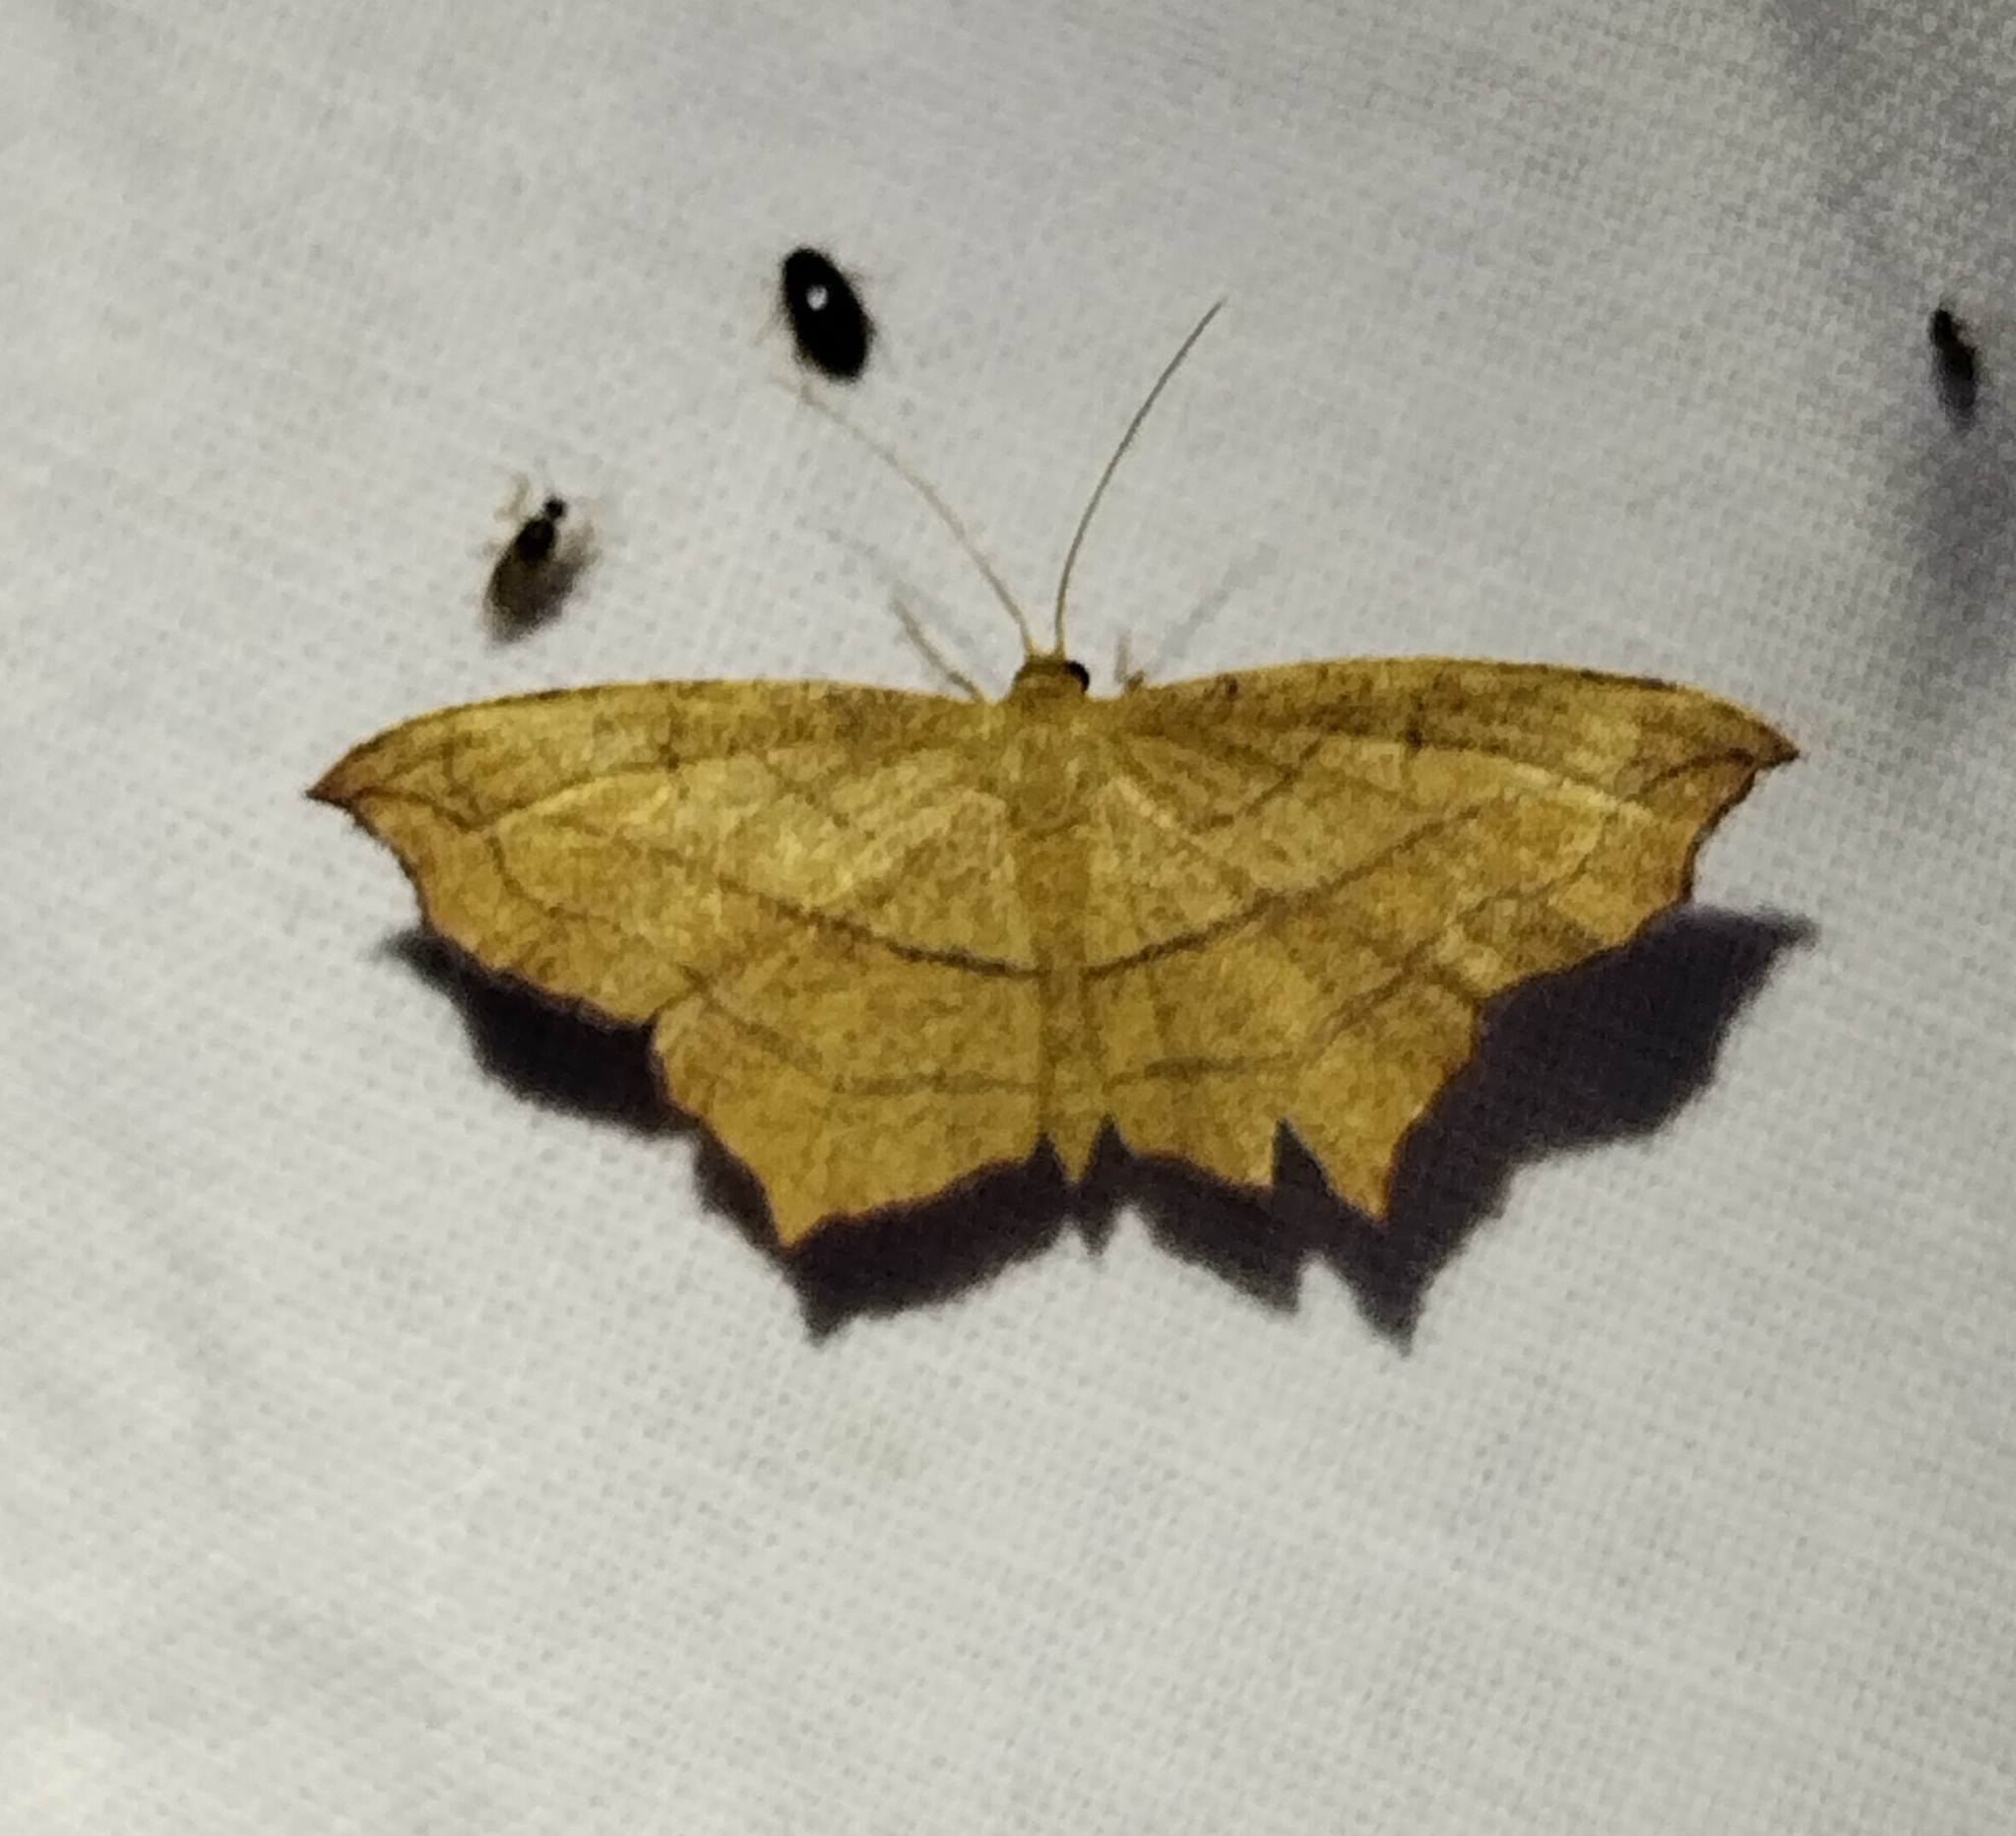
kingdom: Animalia
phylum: Arthropoda
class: Insecta
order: Lepidoptera
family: Geometridae
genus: Timandra
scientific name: Timandra amaturaria
